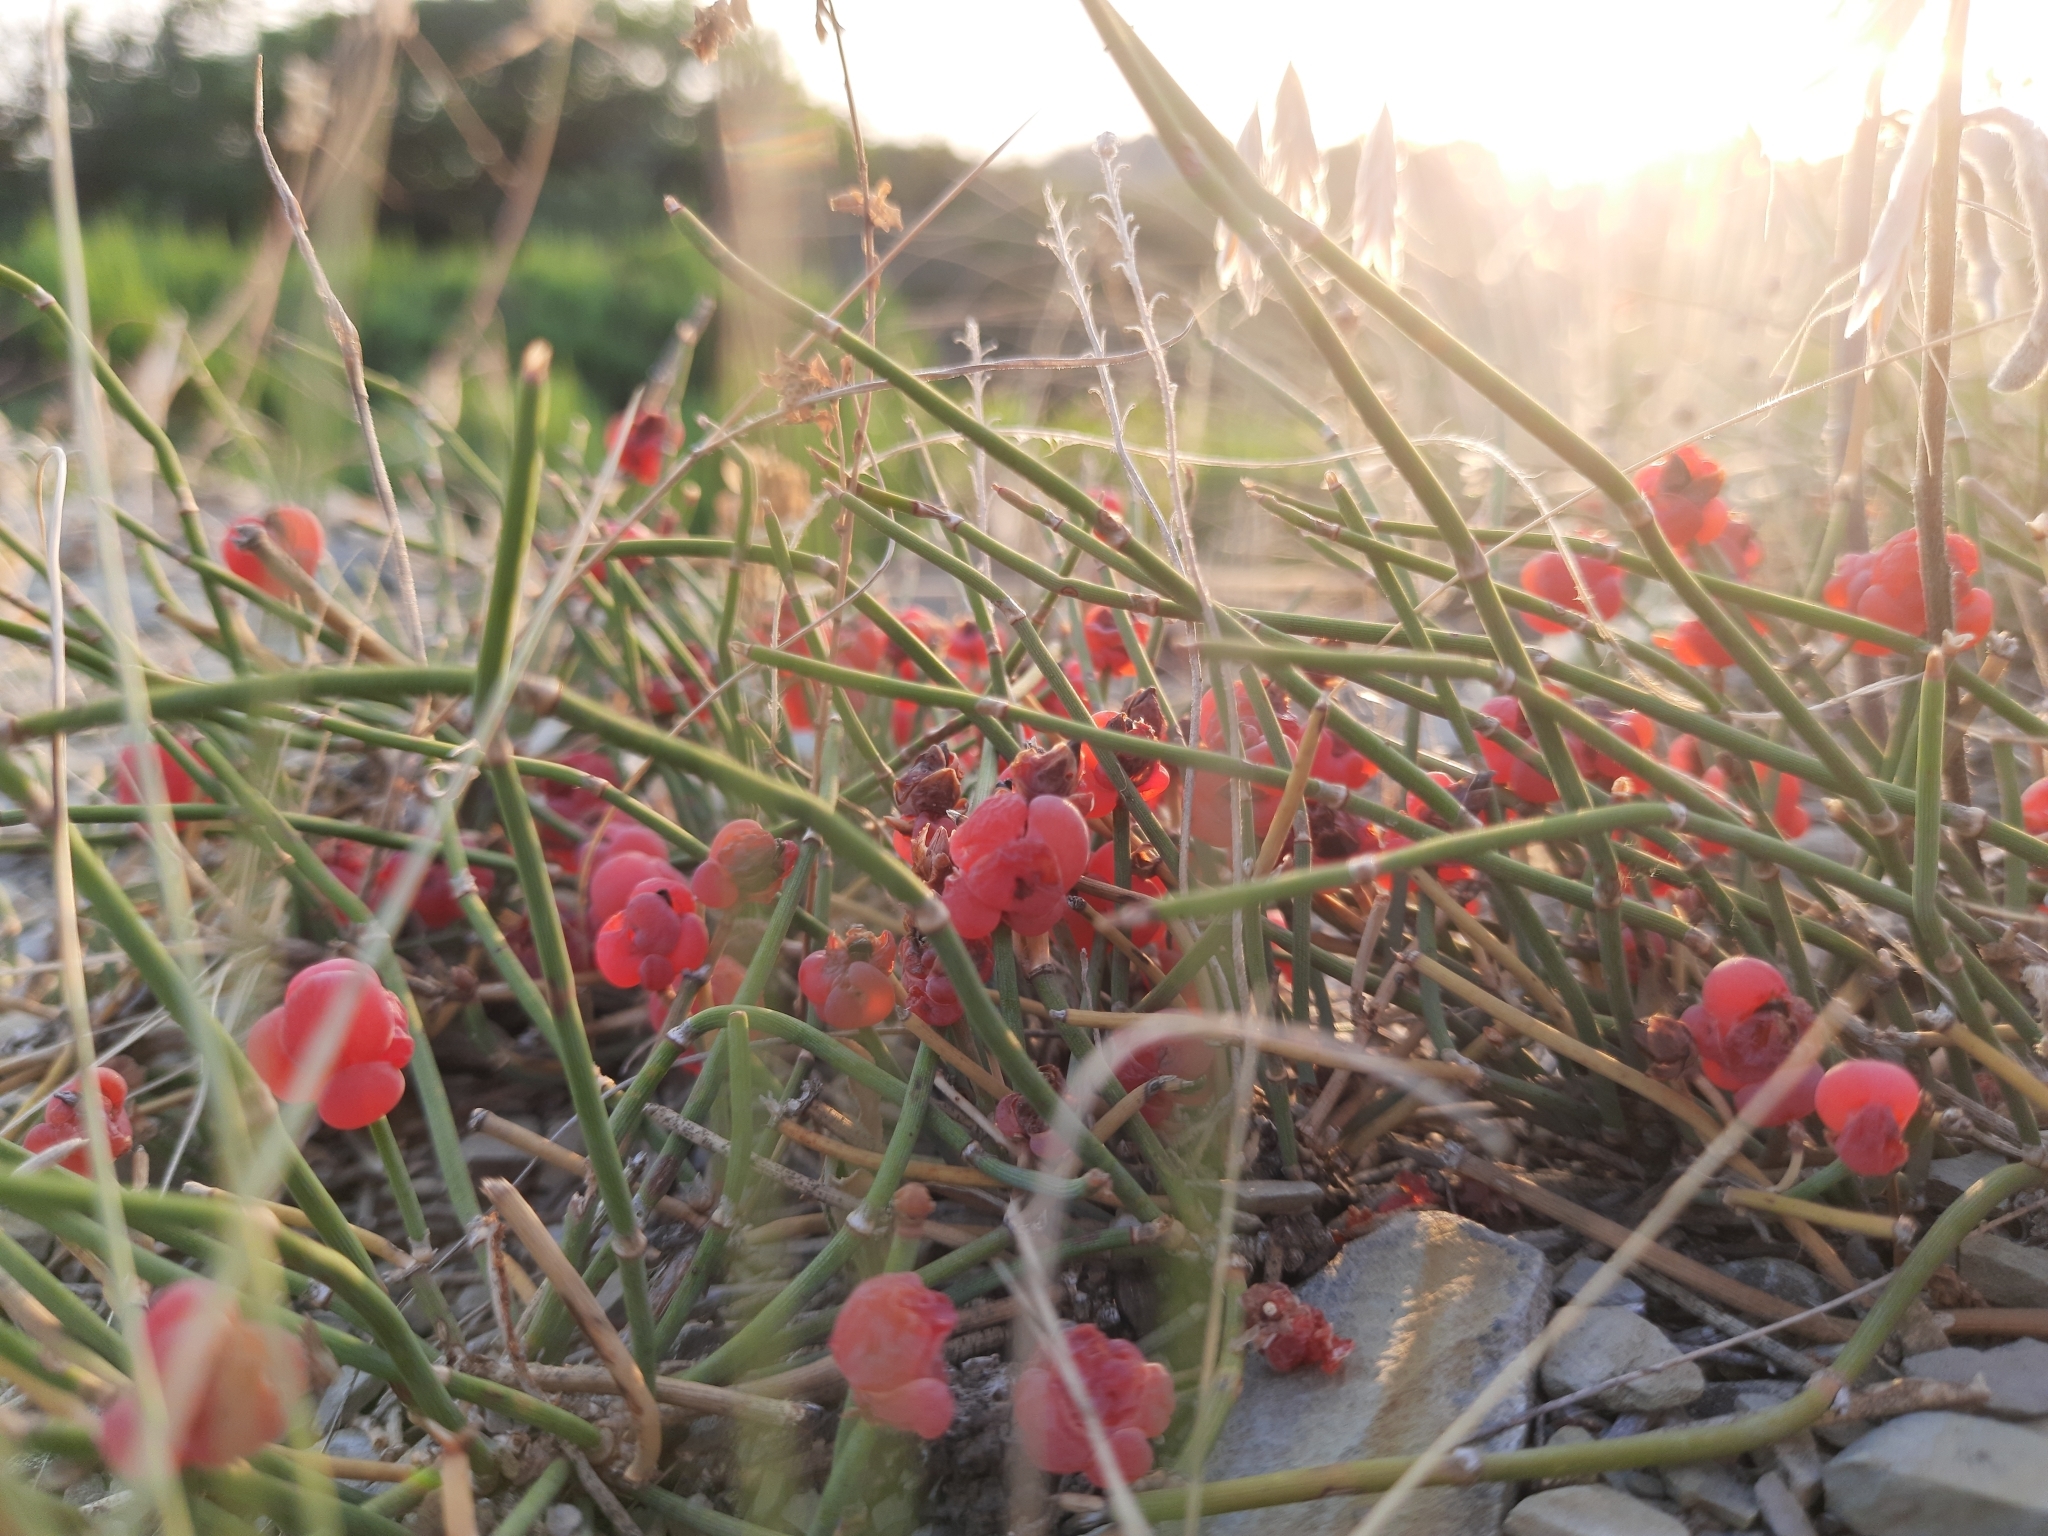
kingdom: Plantae
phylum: Tracheophyta
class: Gnetopsida
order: Ephedrales
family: Ephedraceae
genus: Ephedra
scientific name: Ephedra distachya
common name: Sea grape
